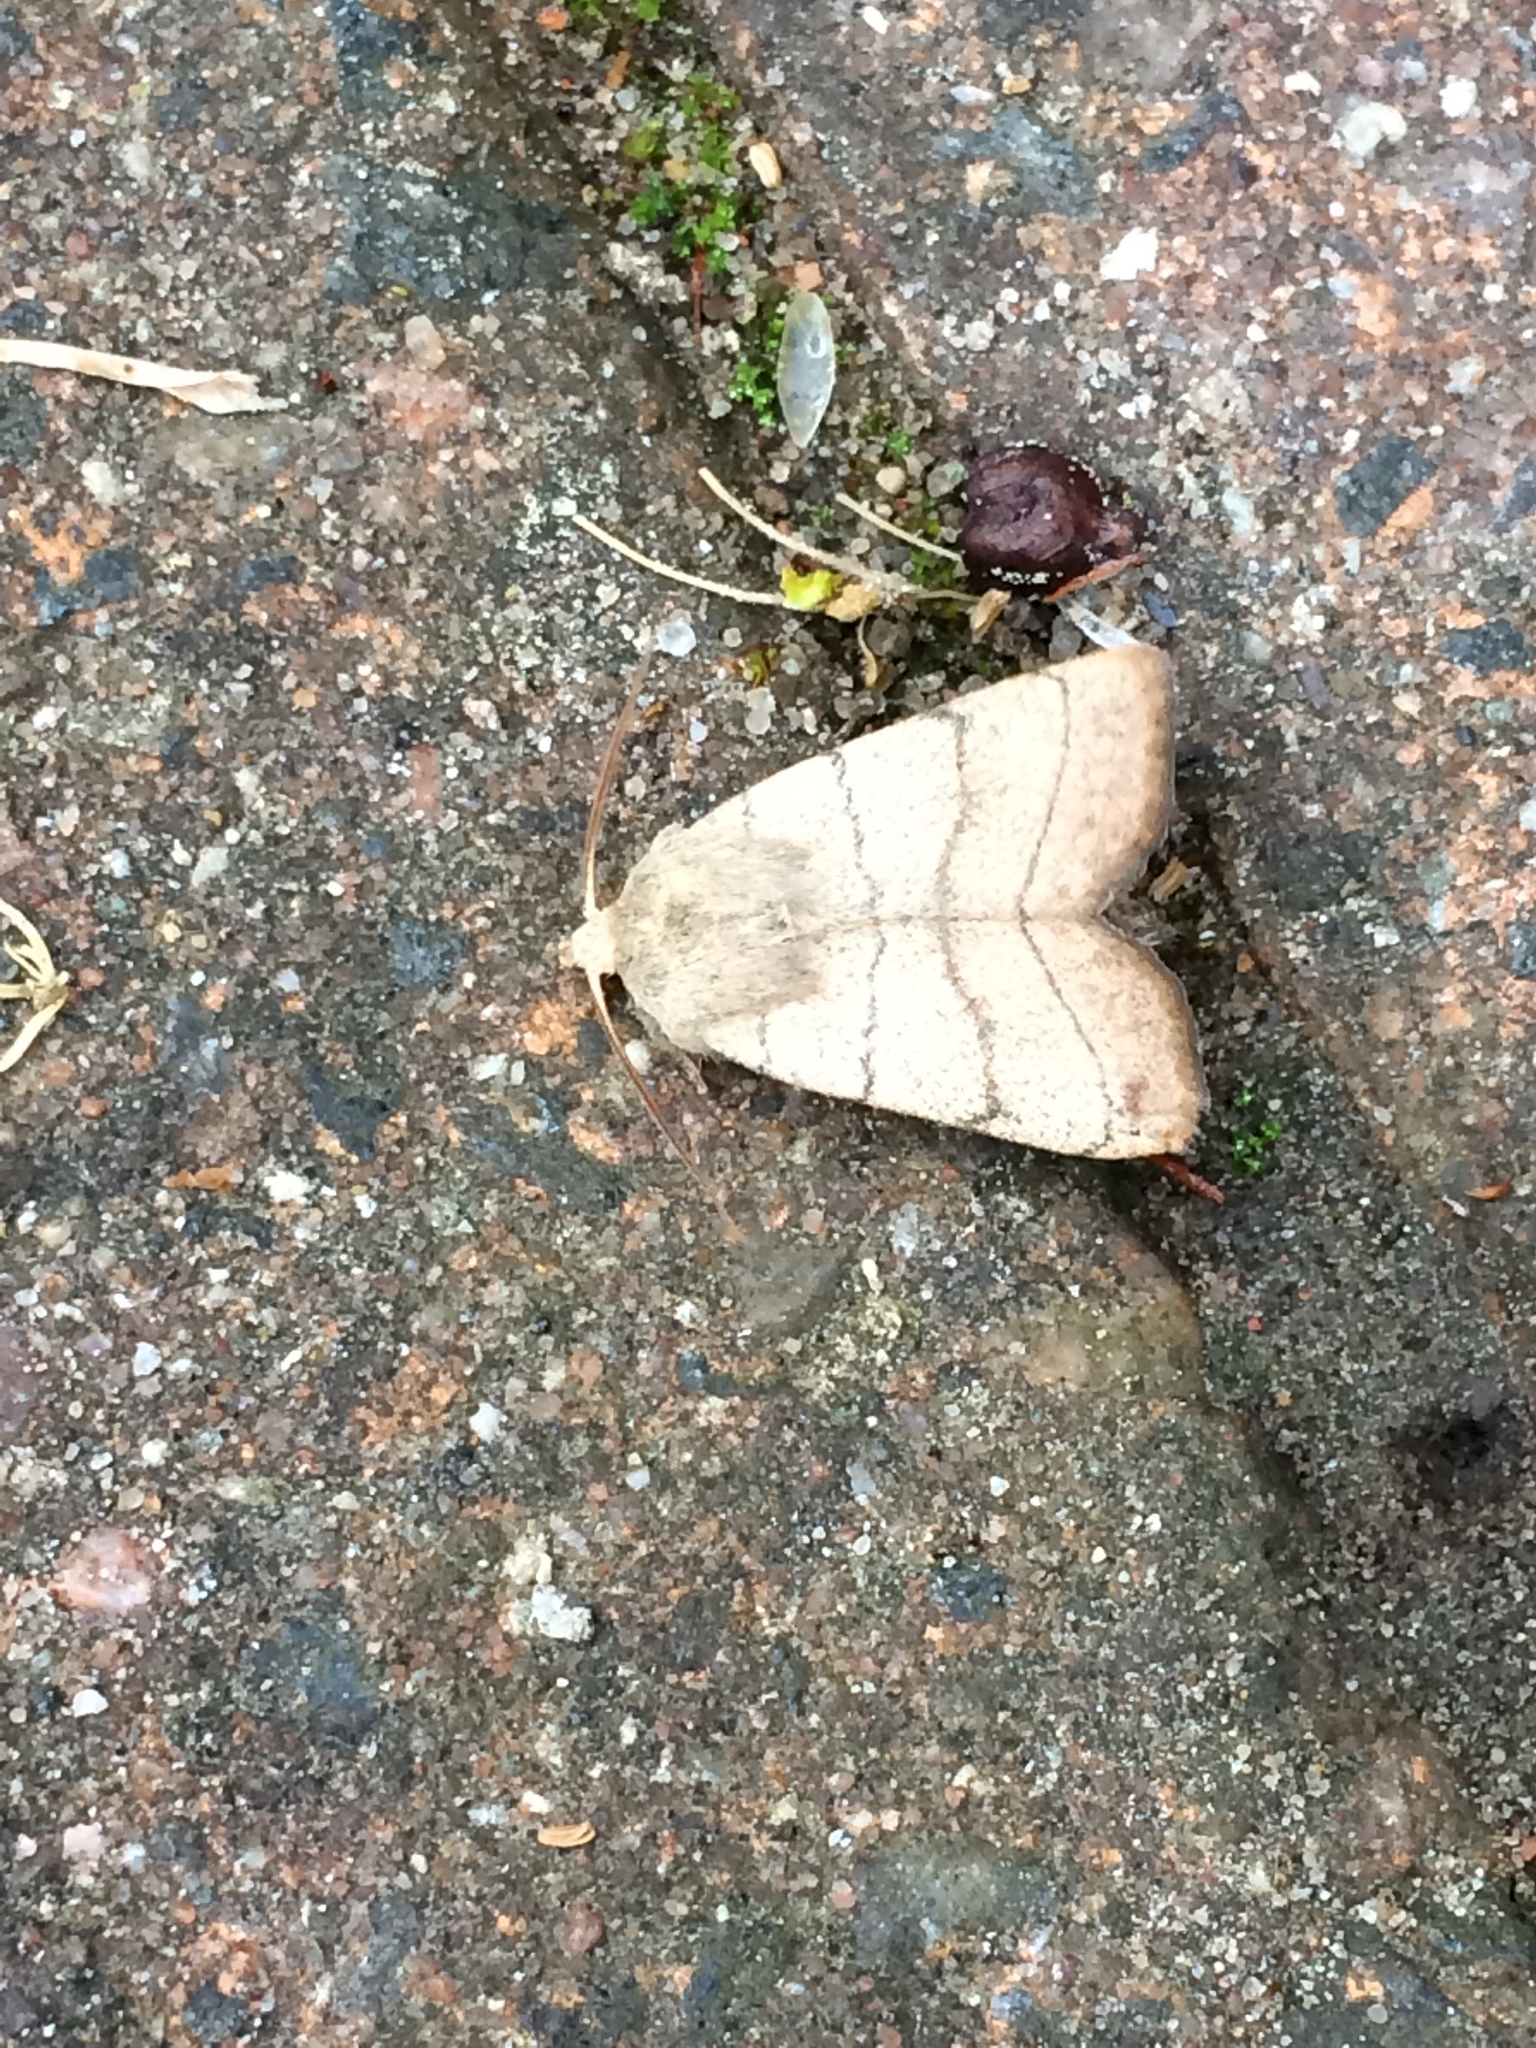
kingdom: Animalia
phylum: Arthropoda
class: Insecta
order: Lepidoptera
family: Noctuidae
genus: Charanyca
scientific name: Charanyca trigrammica
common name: Treble lines
